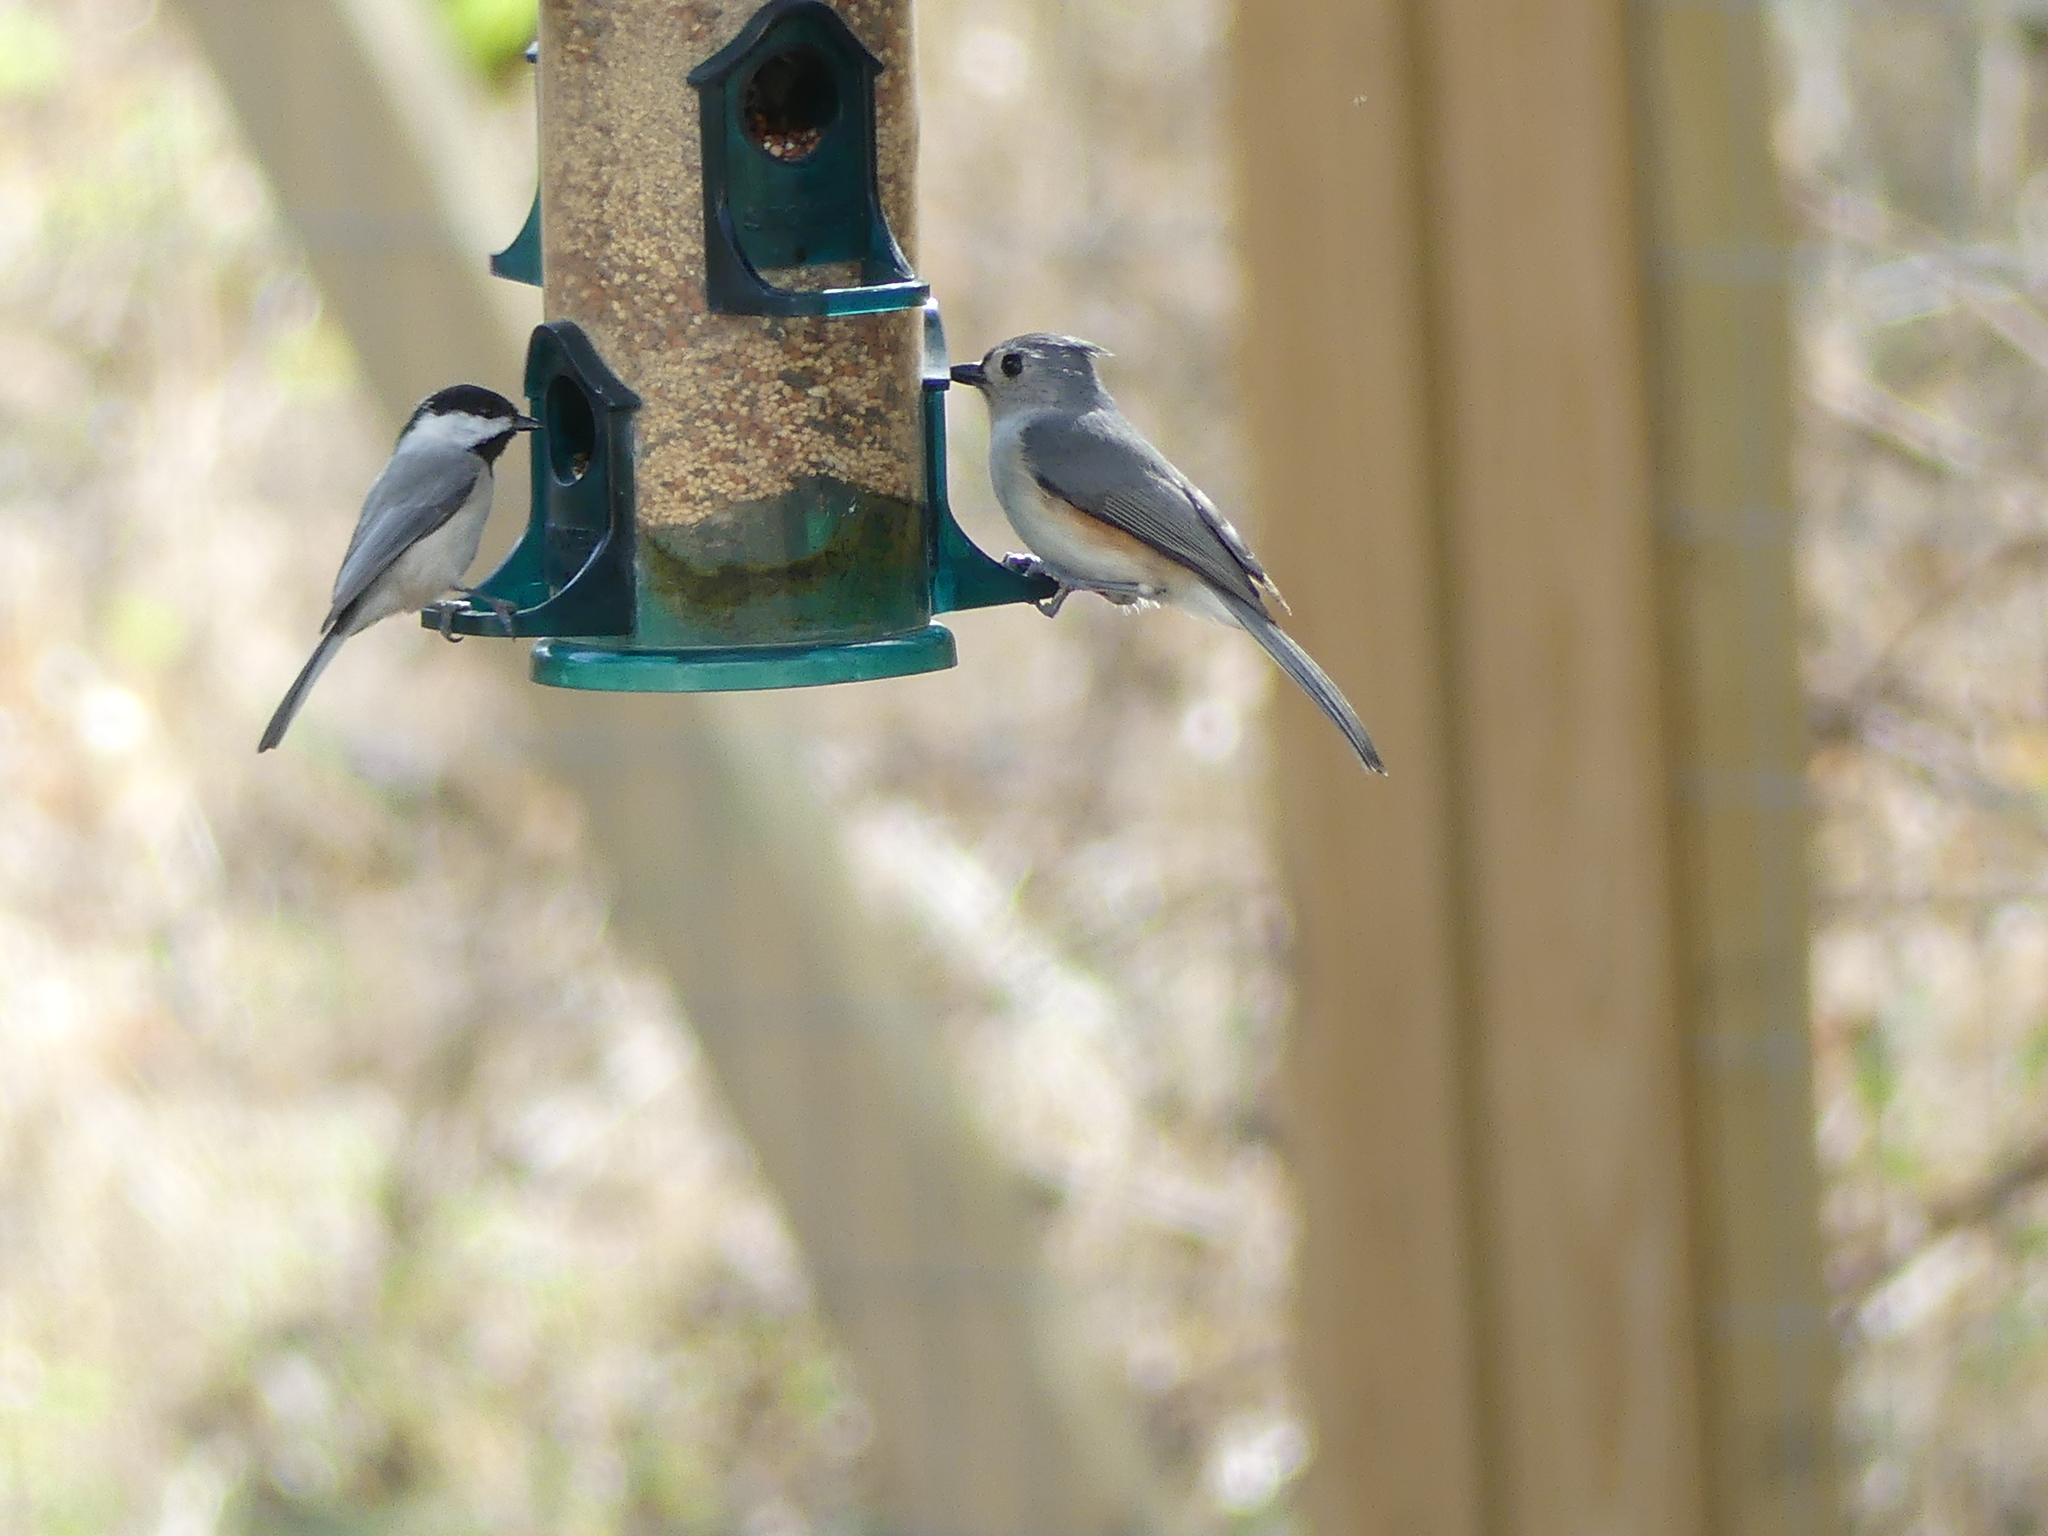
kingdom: Animalia
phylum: Chordata
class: Aves
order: Passeriformes
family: Paridae
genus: Baeolophus
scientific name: Baeolophus bicolor
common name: Tufted titmouse
